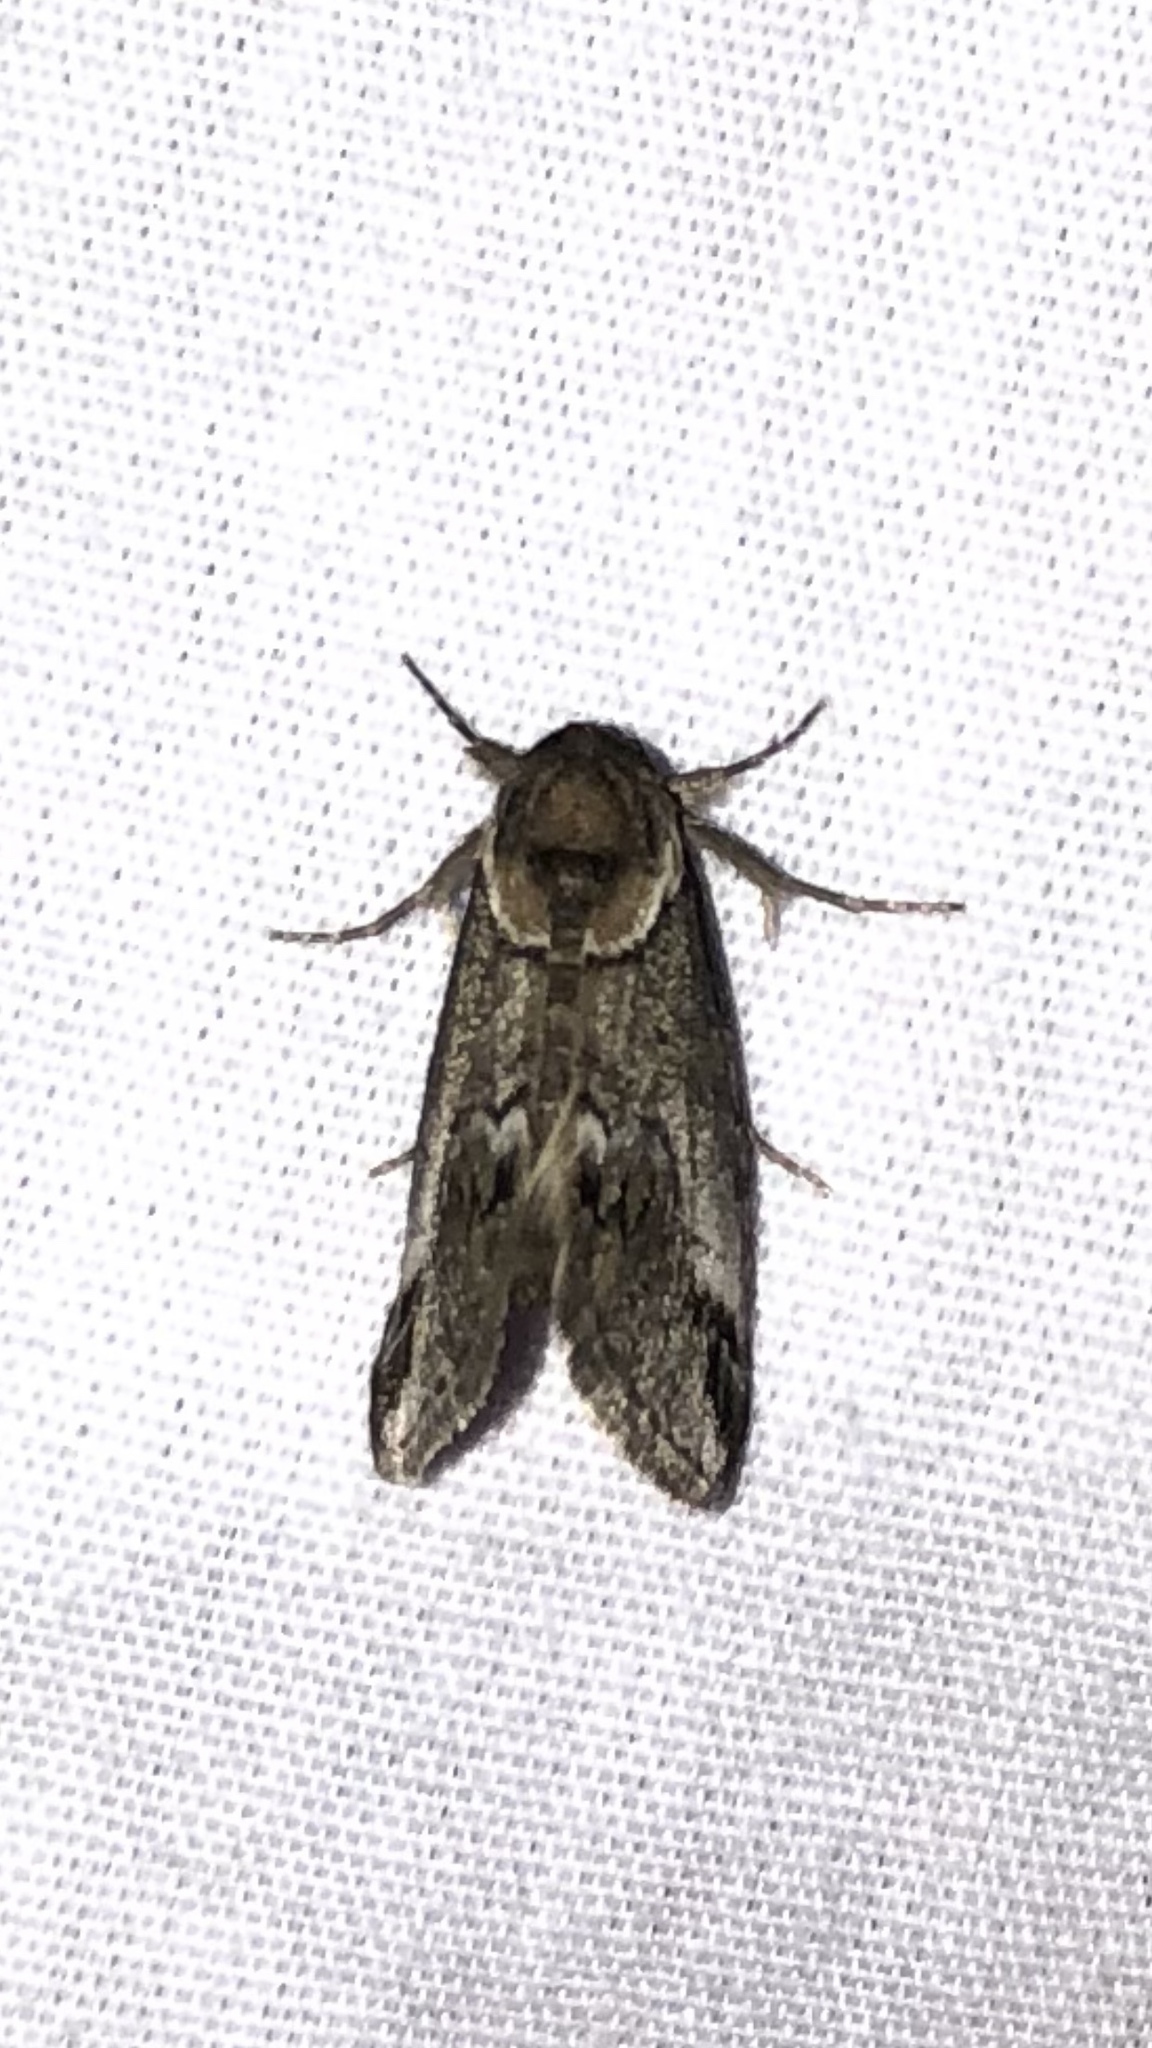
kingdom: Animalia
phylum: Arthropoda
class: Insecta
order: Lepidoptera
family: Nolidae
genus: Baileya
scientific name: Baileya australis
